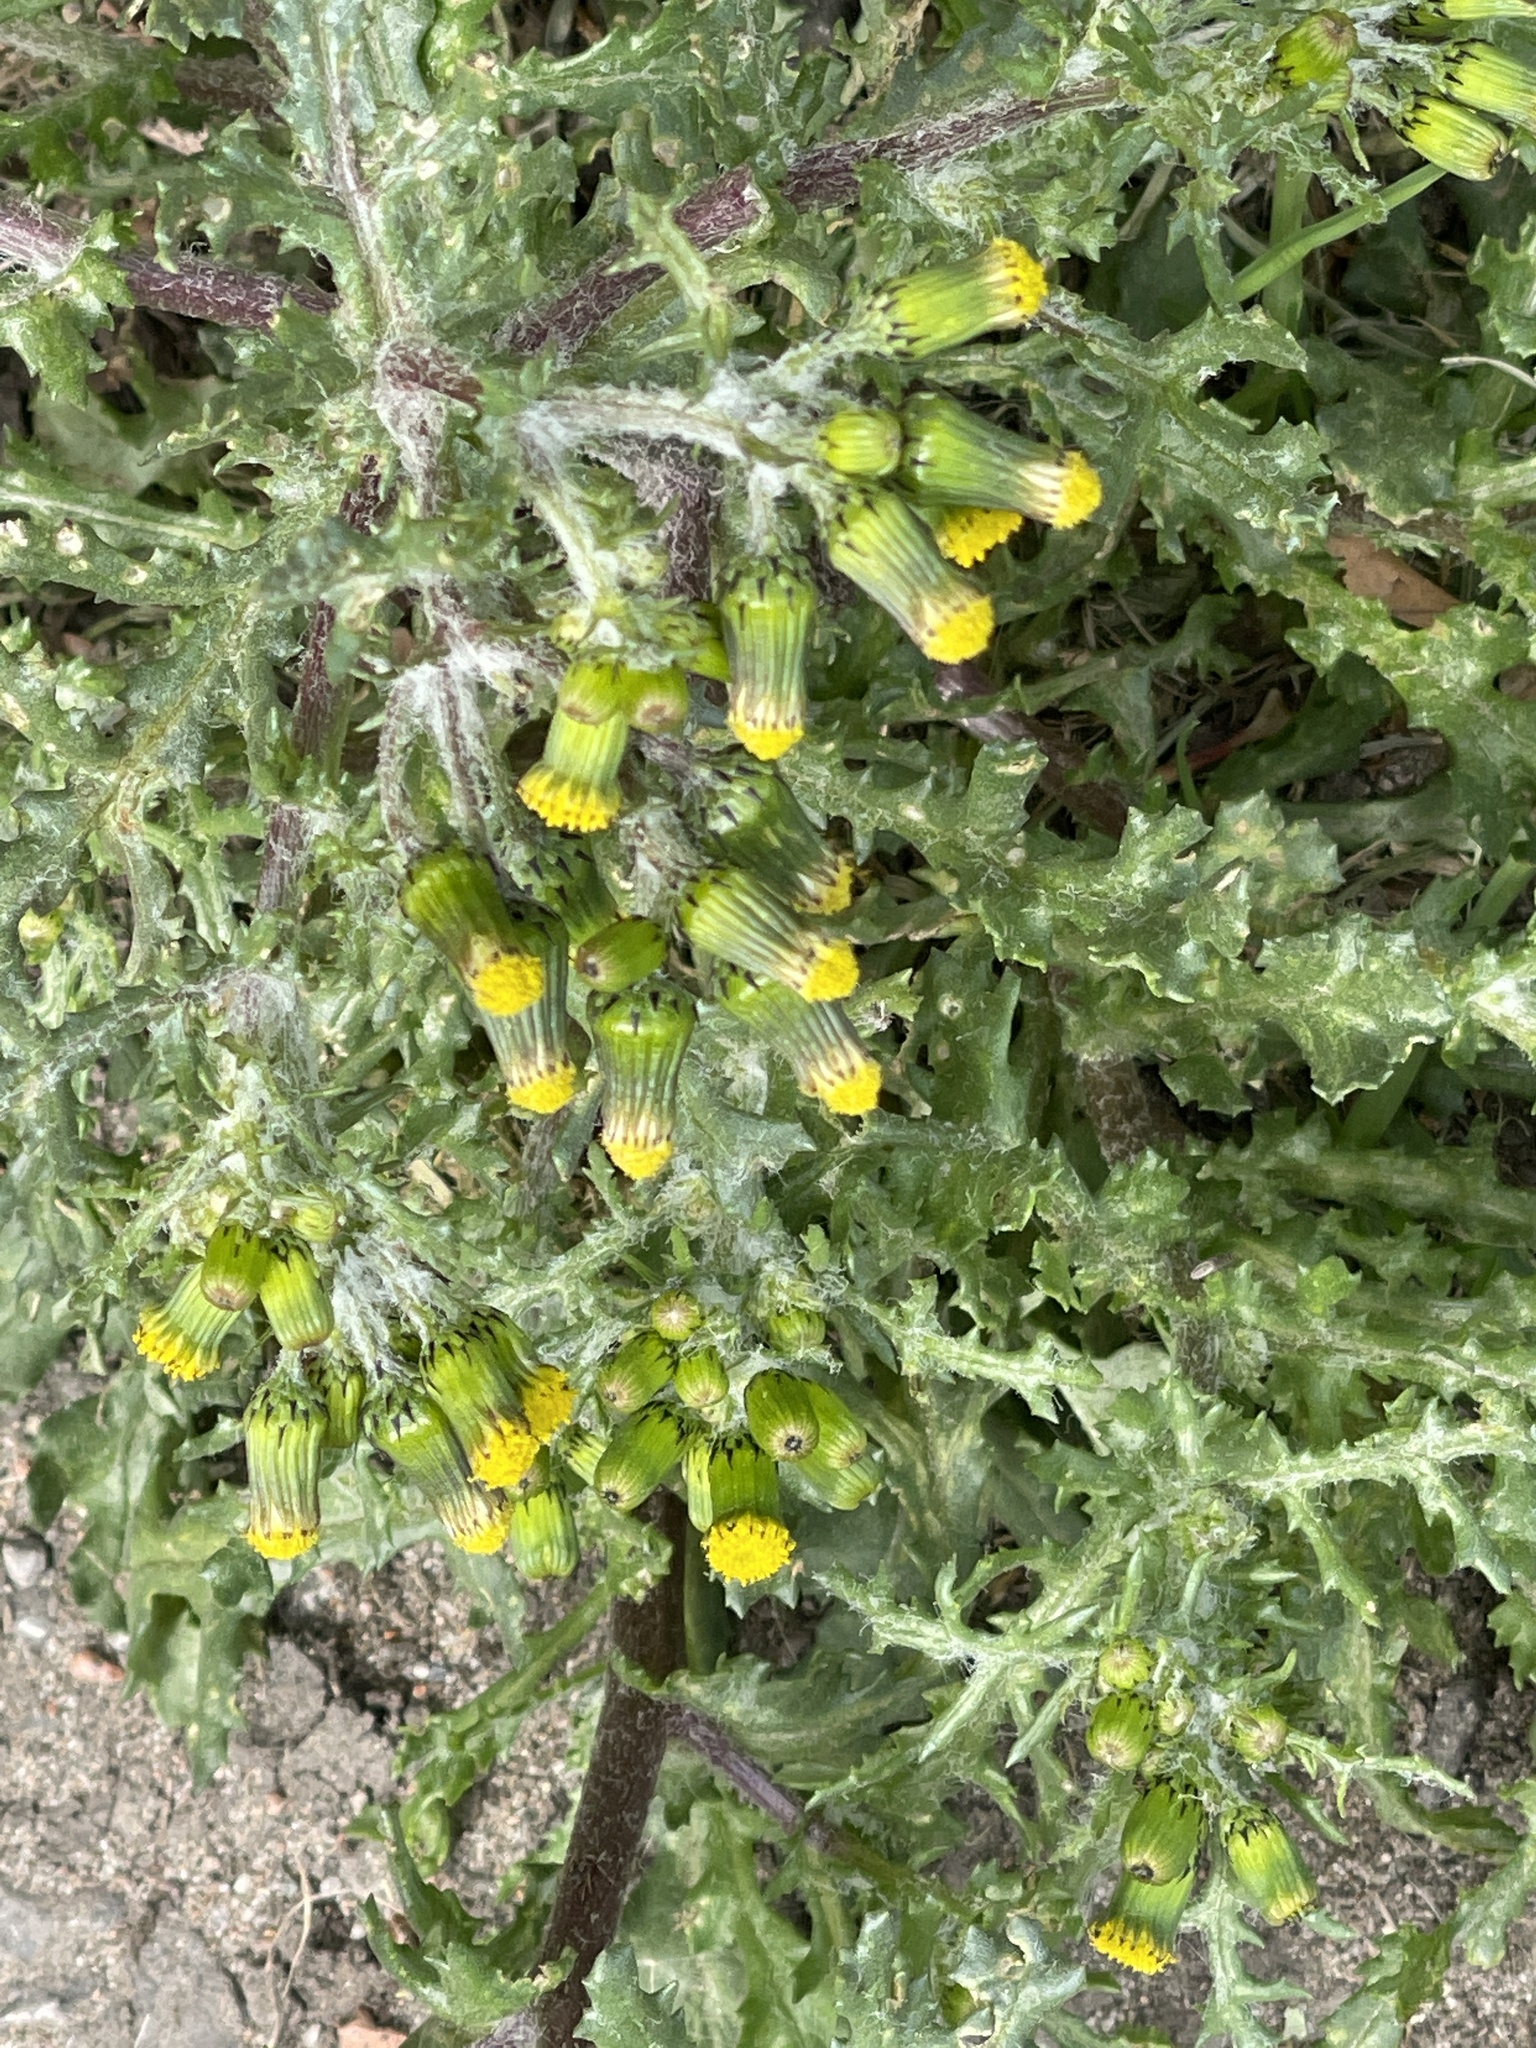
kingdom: Plantae
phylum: Tracheophyta
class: Magnoliopsida
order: Asterales
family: Asteraceae
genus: Senecio
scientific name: Senecio vulgaris
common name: Old-man-in-the-spring
